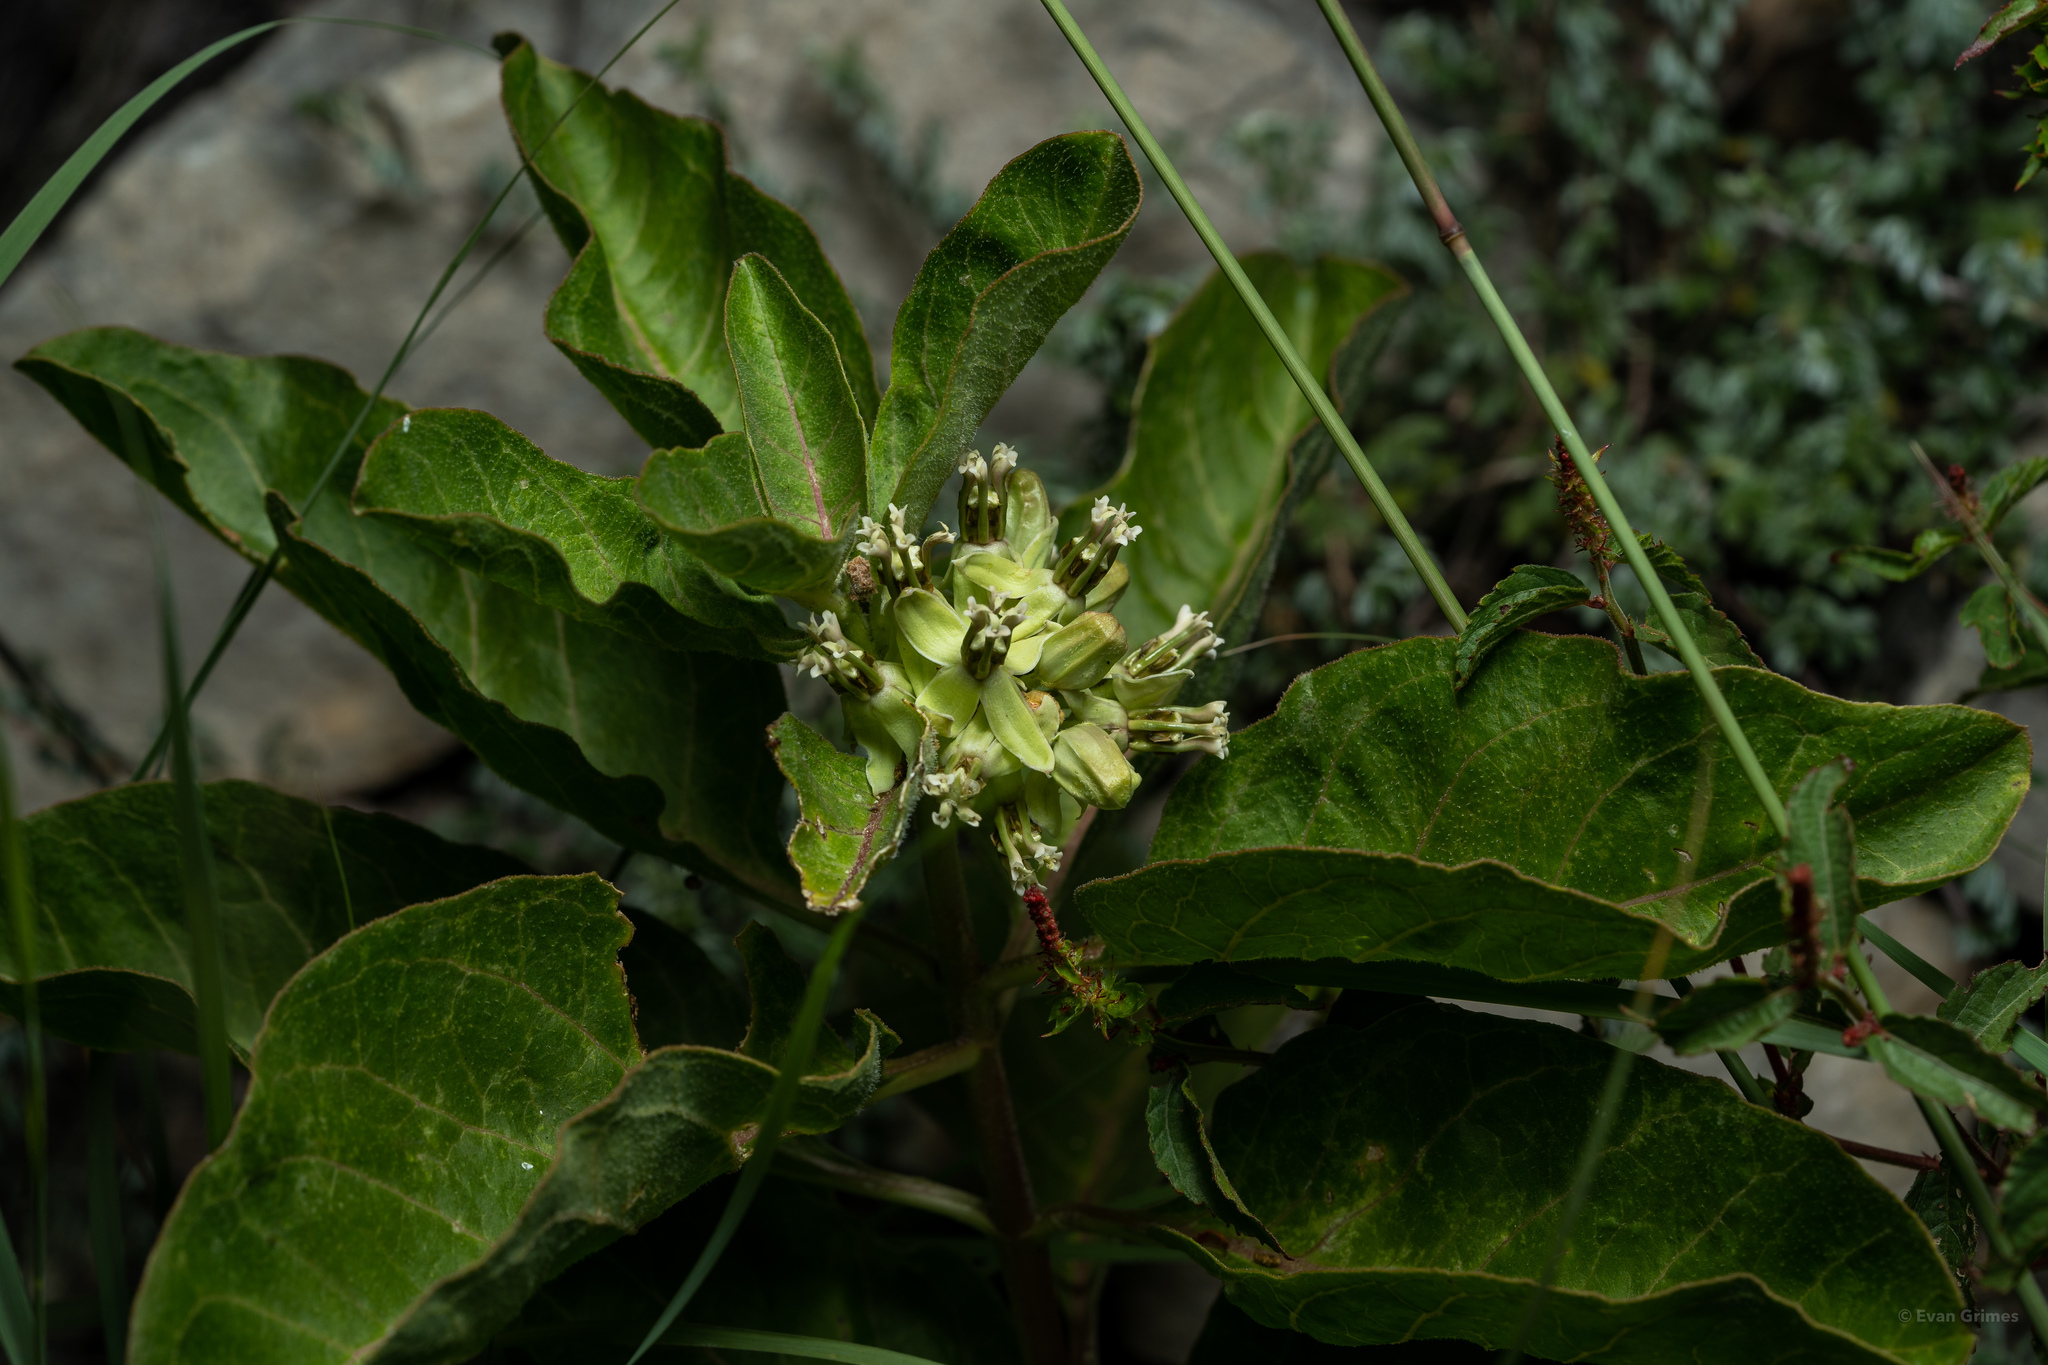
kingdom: Plantae
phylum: Tracheophyta
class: Magnoliopsida
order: Gentianales
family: Apocynaceae
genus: Asclepias
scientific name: Asclepias oenotheroides
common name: Zizotes milkweed
